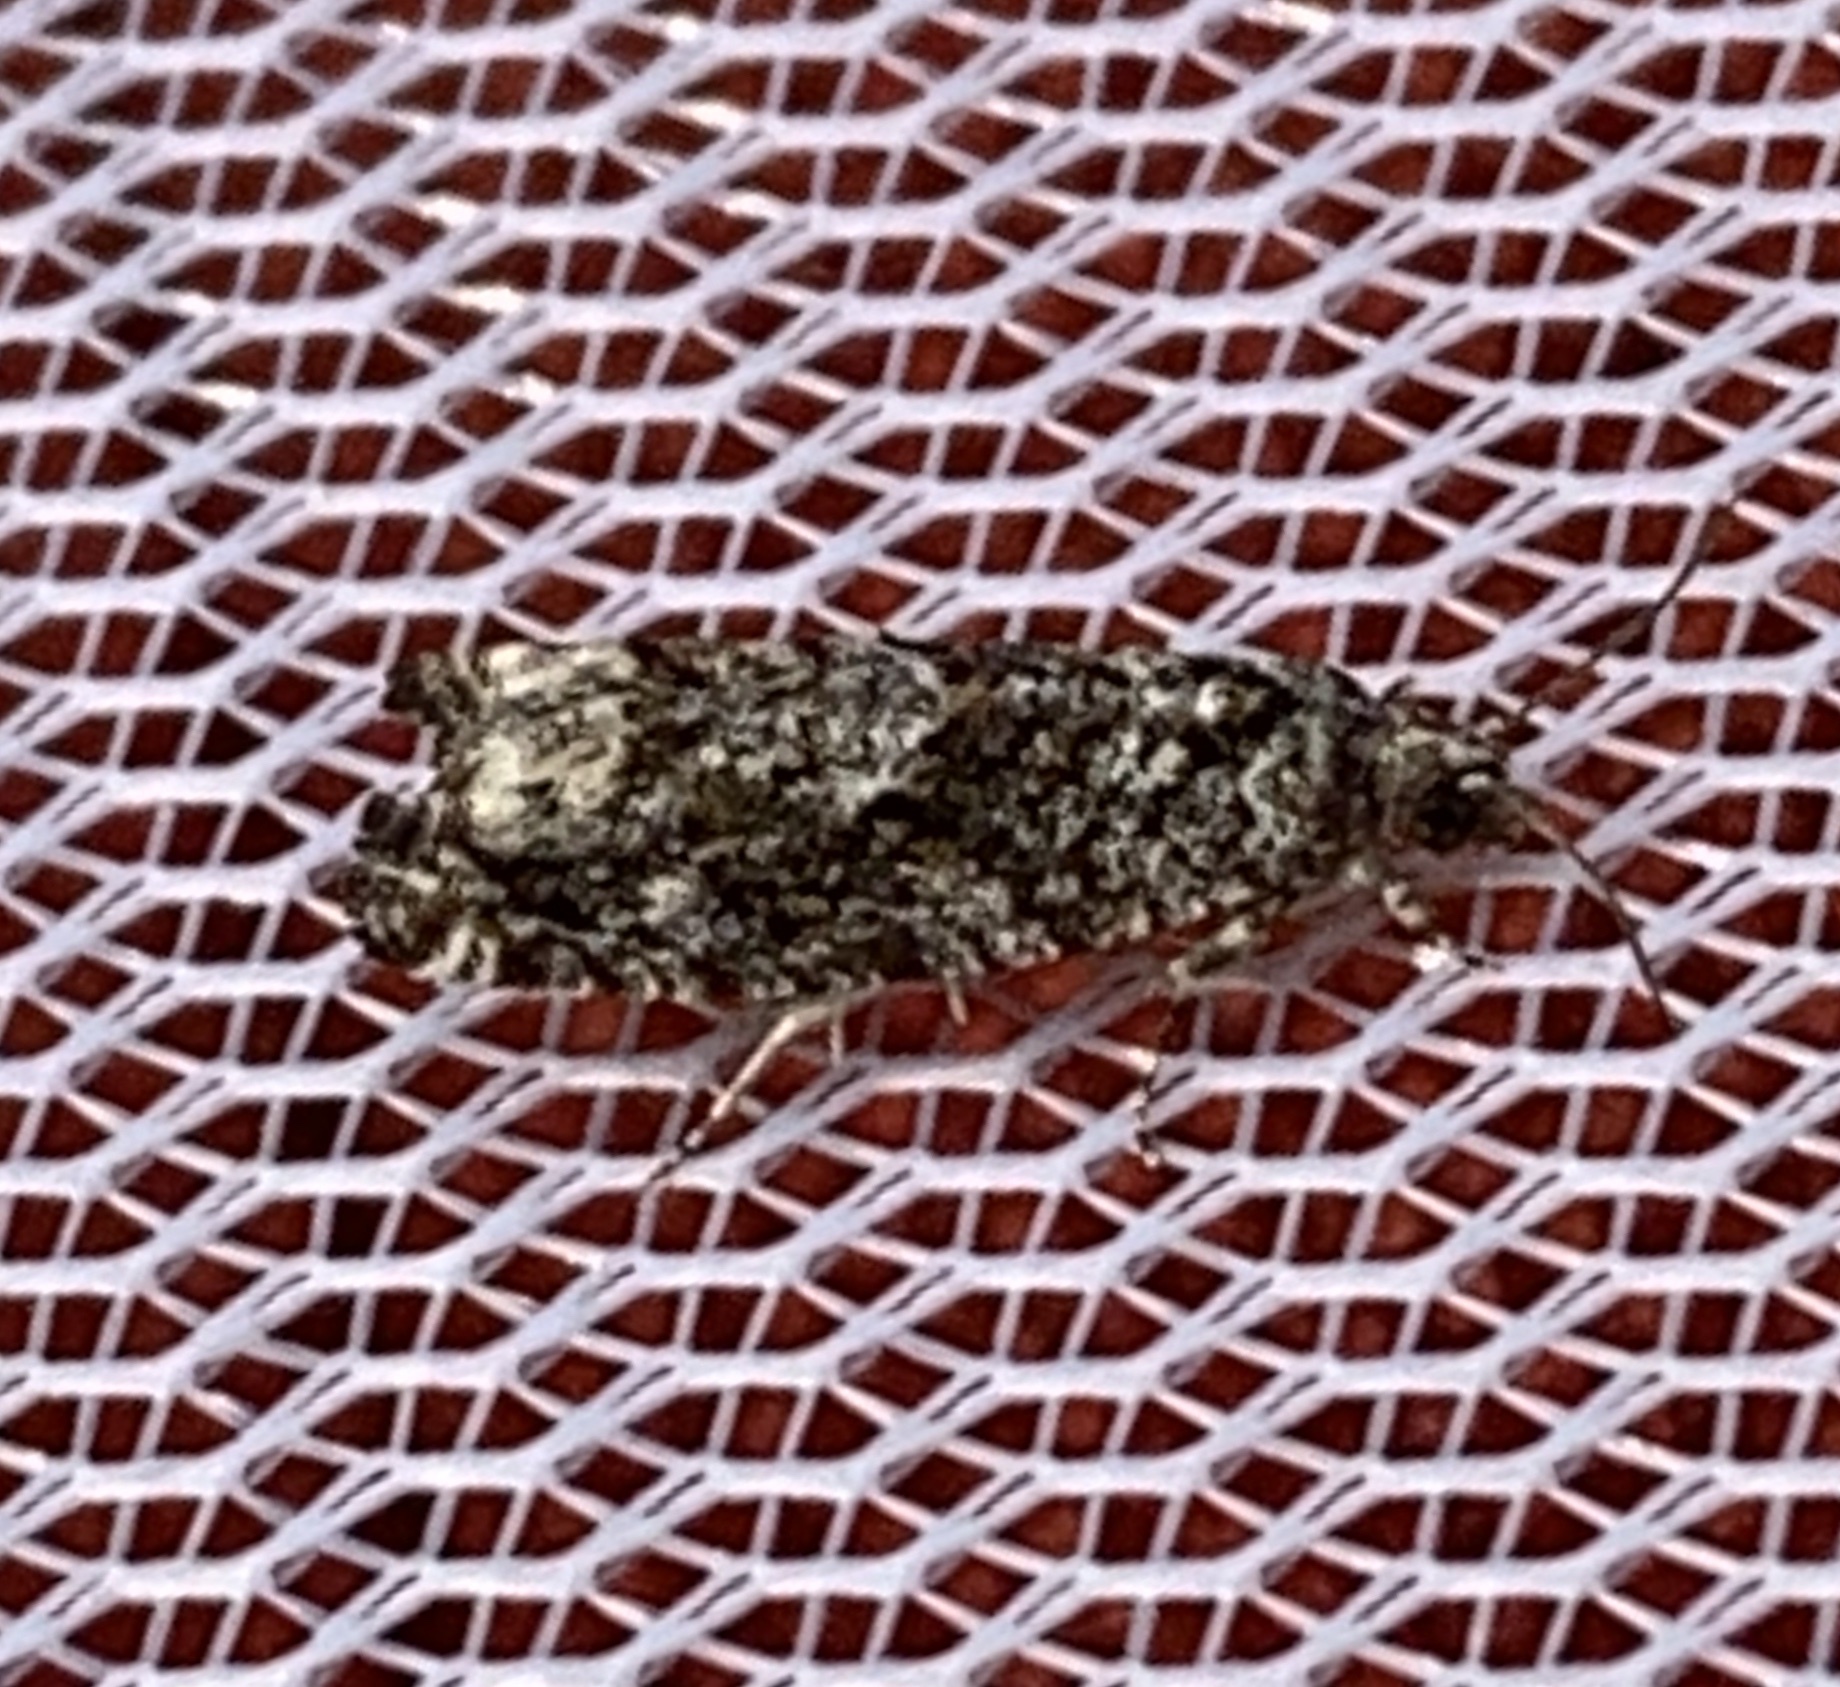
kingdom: Animalia
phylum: Arthropoda
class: Insecta
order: Lepidoptera
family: Tortricidae
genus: Gretchena
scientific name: Gretchena watchungana
